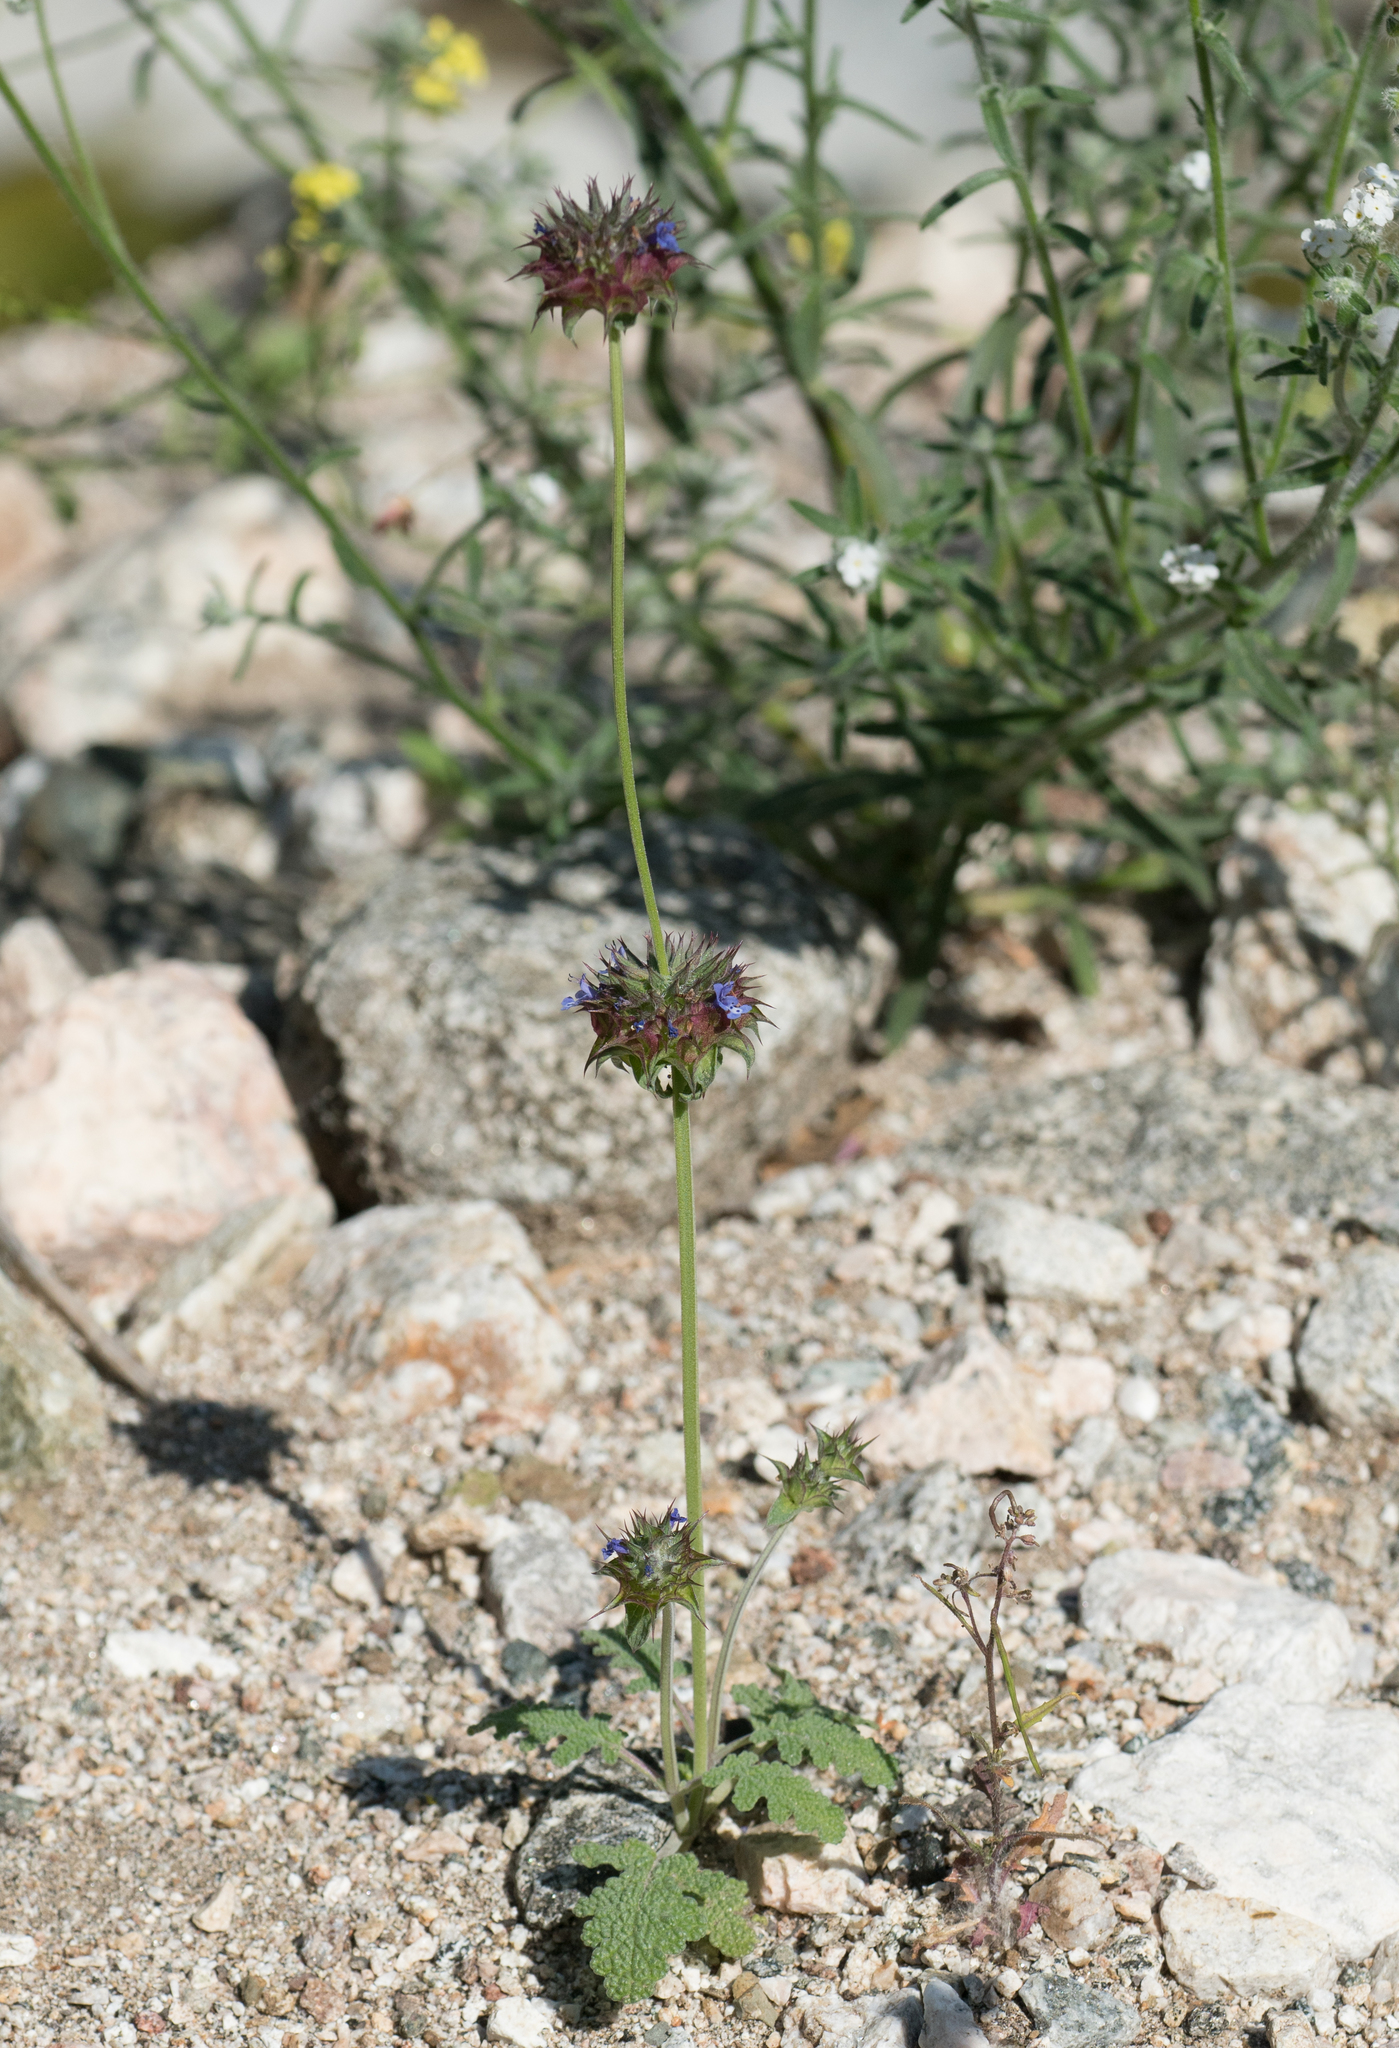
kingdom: Plantae
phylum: Tracheophyta
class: Magnoliopsida
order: Lamiales
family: Lamiaceae
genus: Salvia
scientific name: Salvia columbariae
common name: Chia
